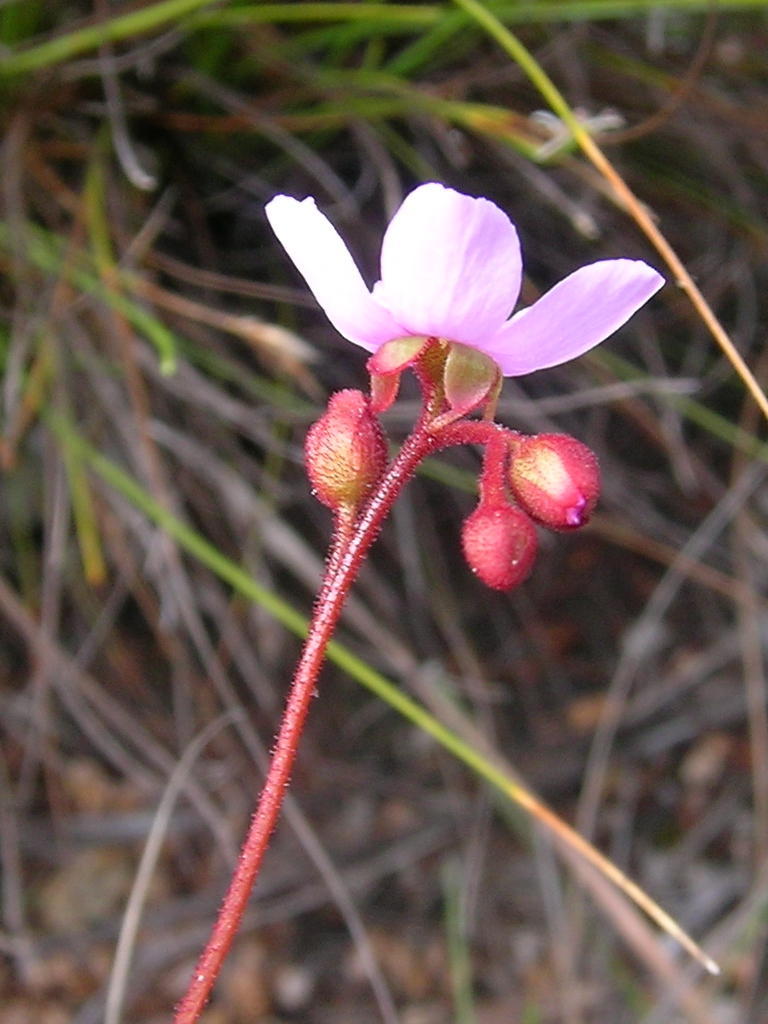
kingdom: Plantae
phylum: Tracheophyta
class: Magnoliopsida
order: Caryophyllales
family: Droseraceae
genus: Drosera
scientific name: Drosera aliciae
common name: Alice sundew
